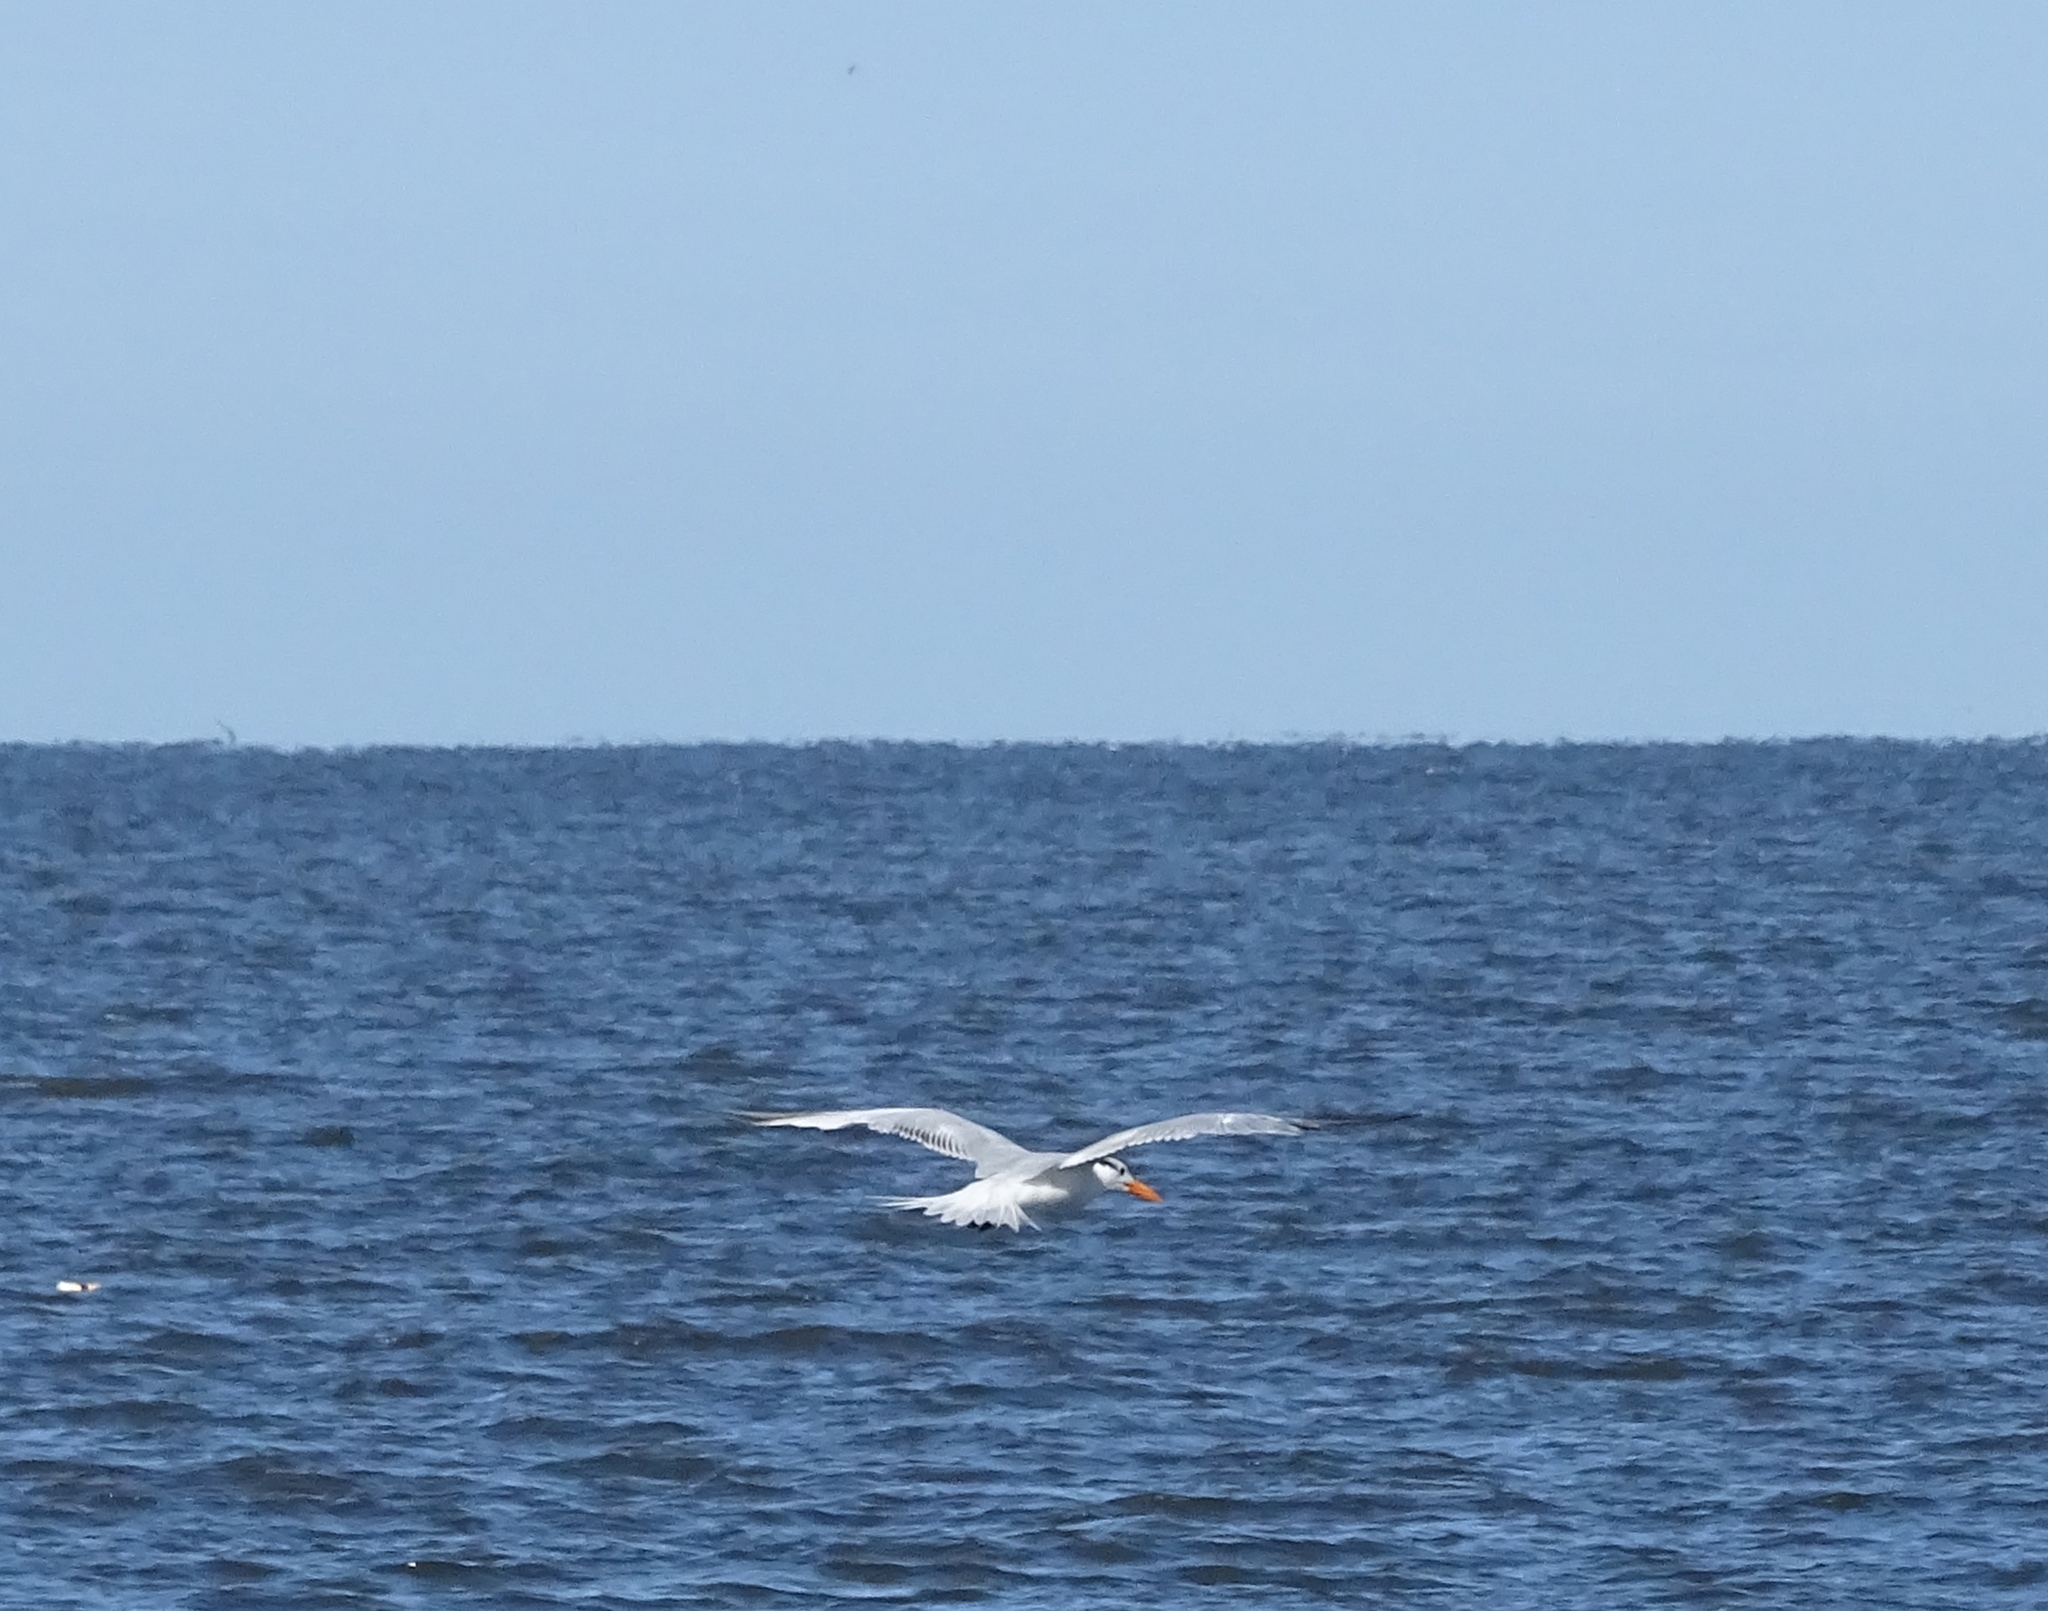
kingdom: Animalia
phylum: Chordata
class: Aves
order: Charadriiformes
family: Laridae
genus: Thalasseus
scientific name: Thalasseus maximus
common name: Royal tern
